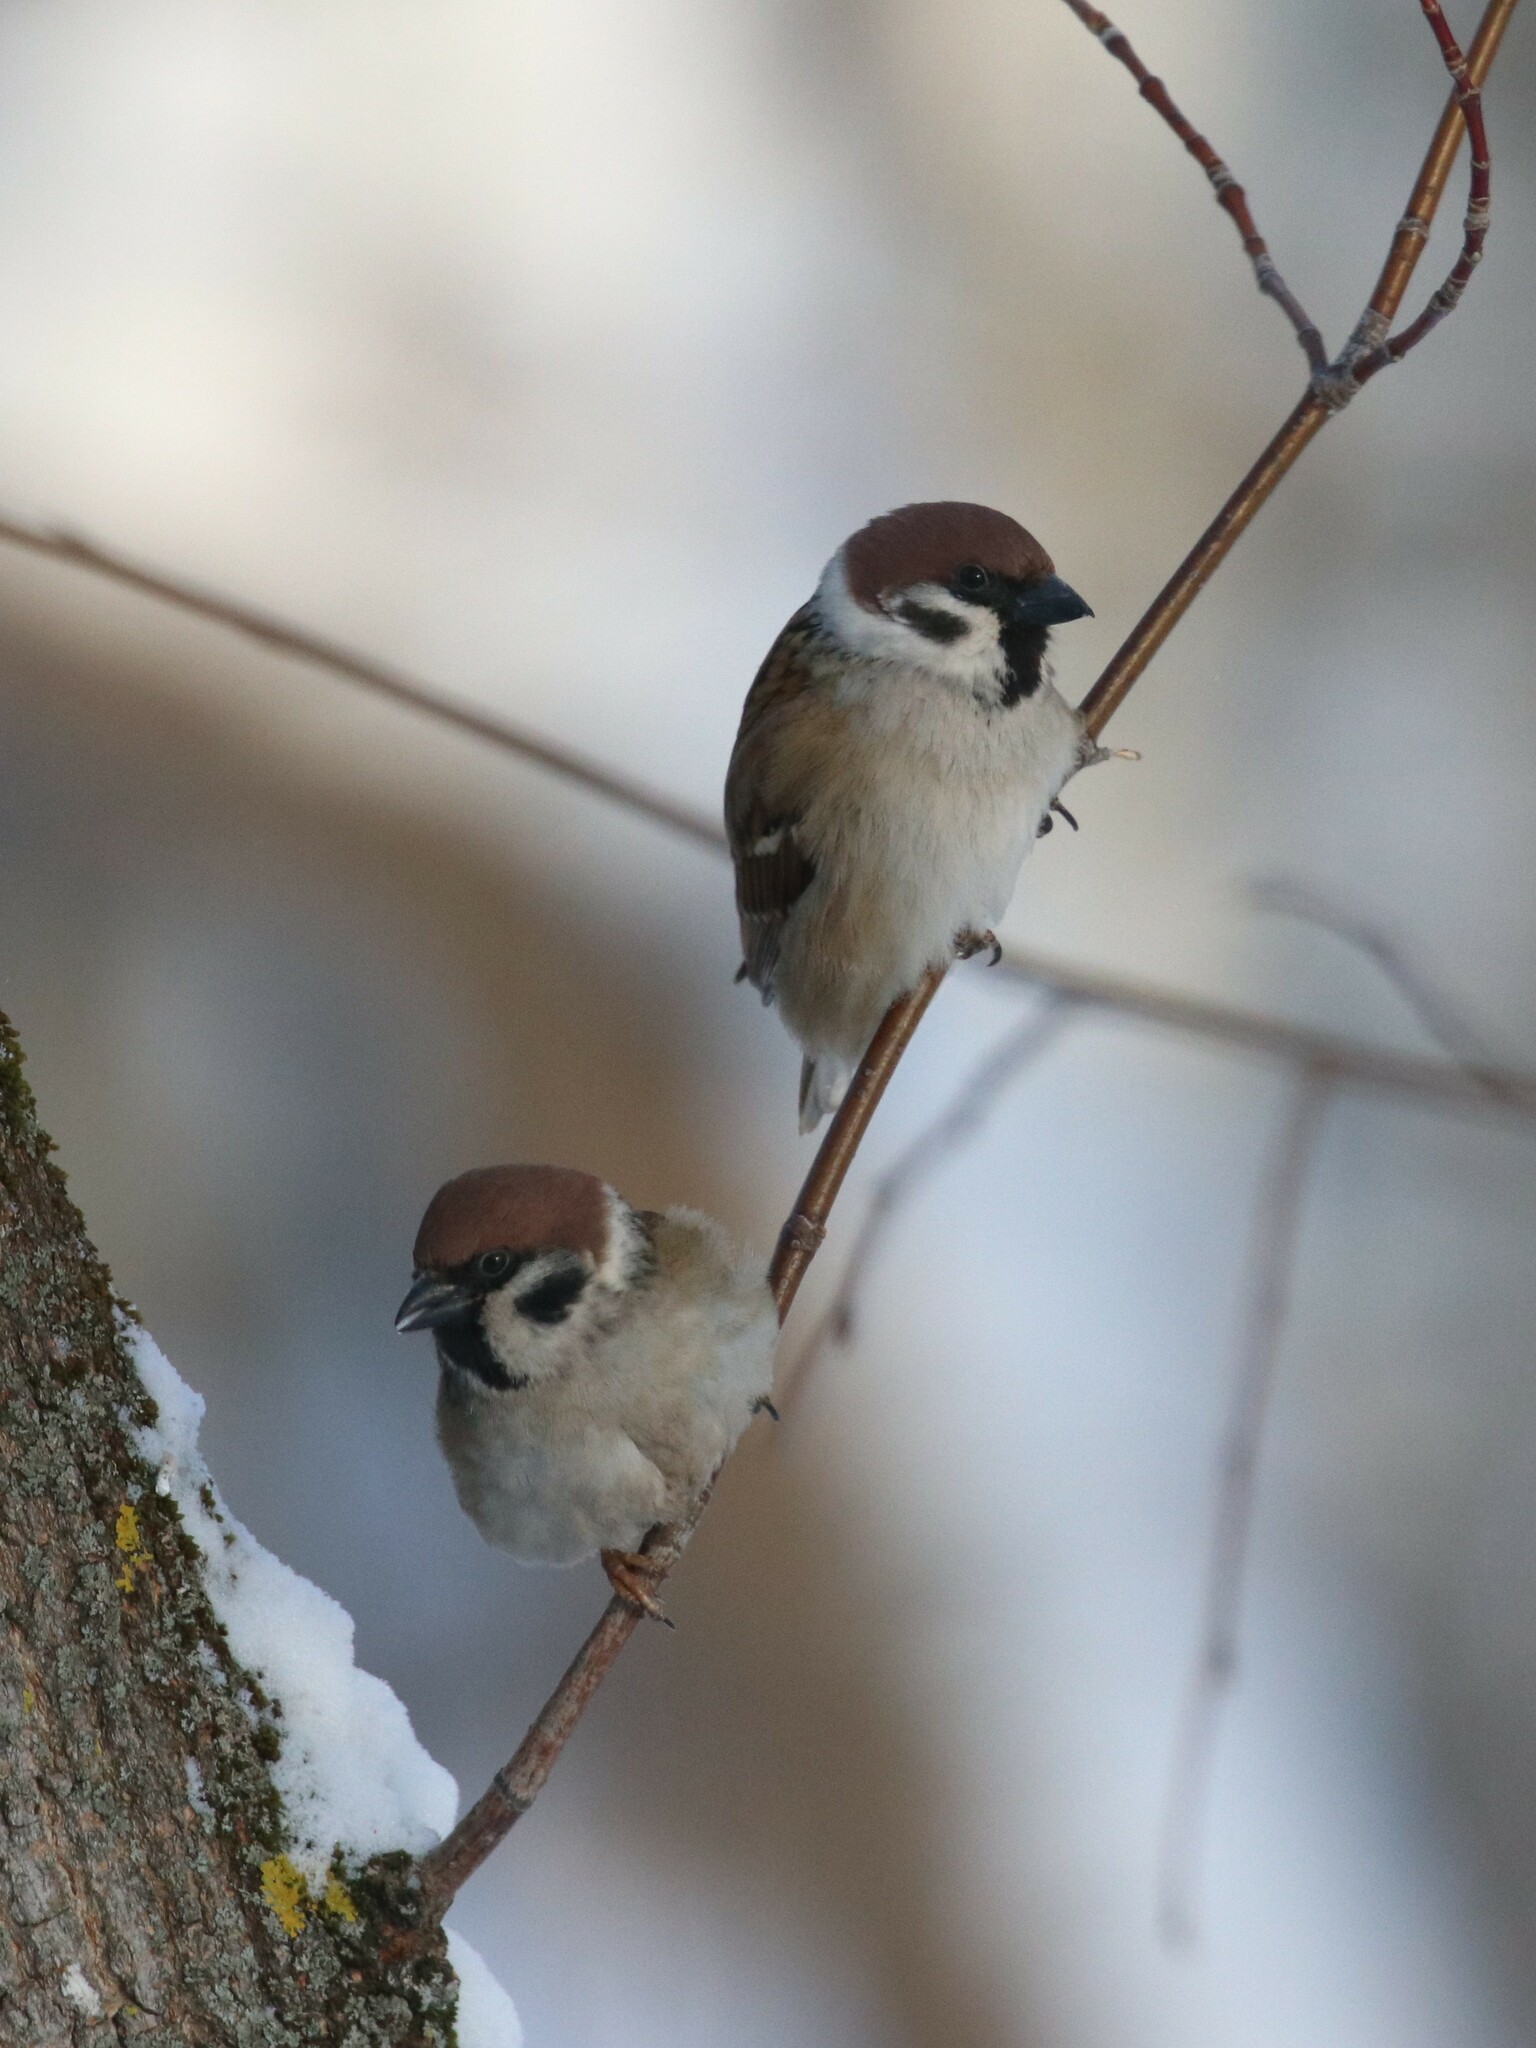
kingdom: Animalia
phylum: Chordata
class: Aves
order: Passeriformes
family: Passeridae
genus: Passer
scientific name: Passer montanus
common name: Eurasian tree sparrow
